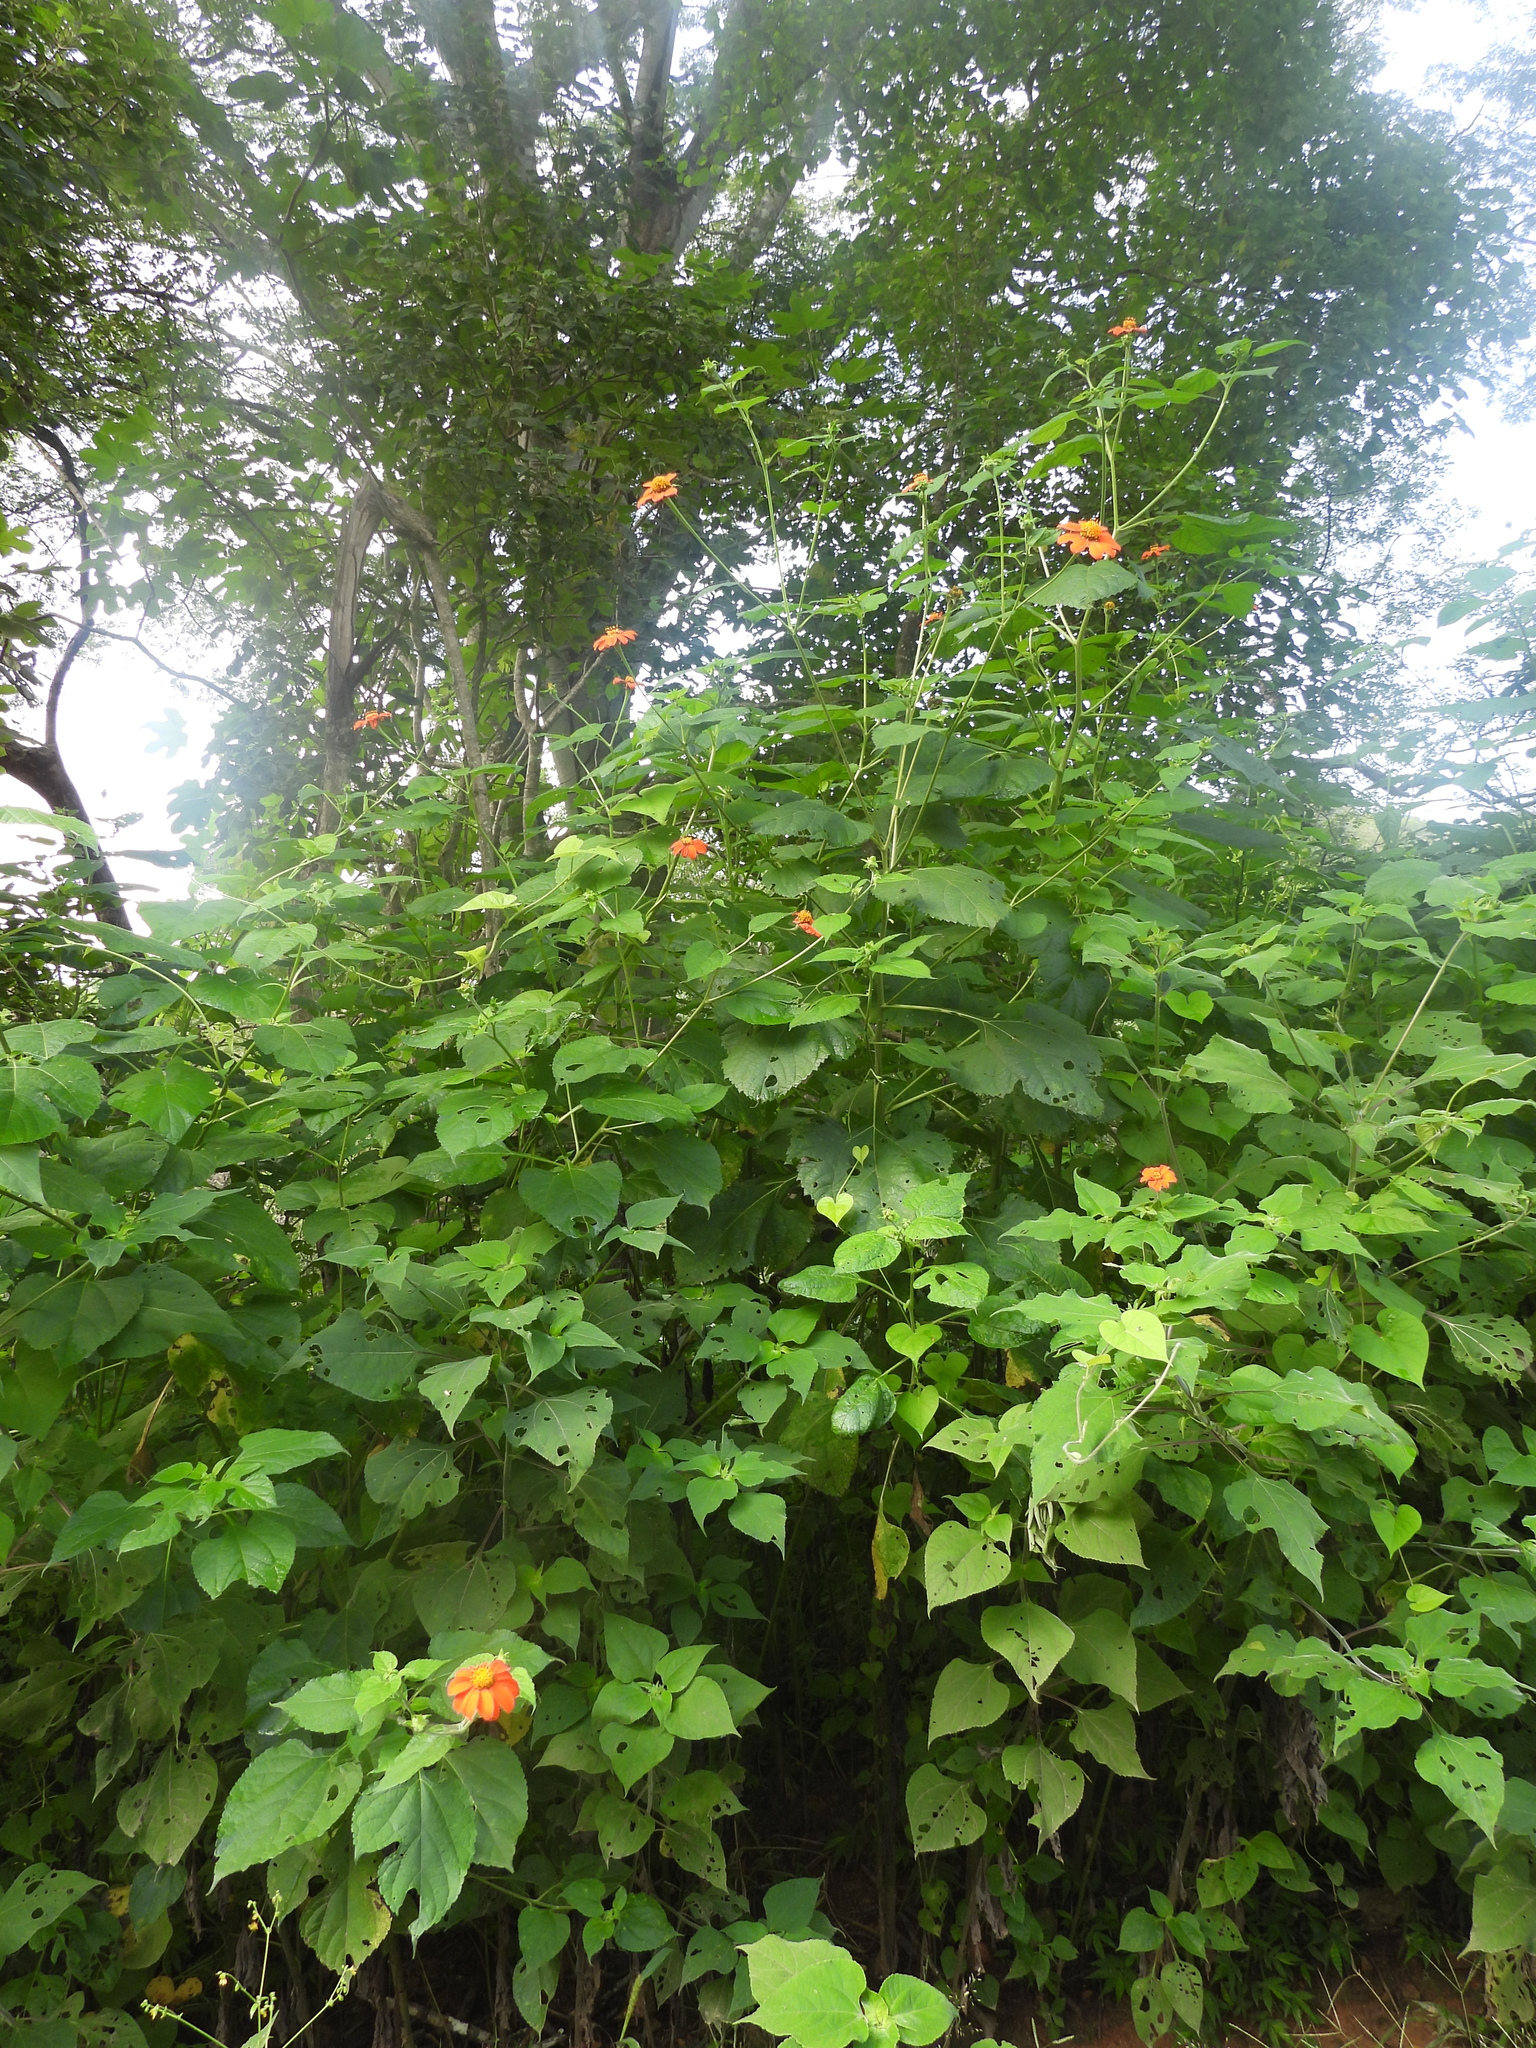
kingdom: Plantae
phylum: Tracheophyta
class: Magnoliopsida
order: Asterales
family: Asteraceae
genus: Tithonia
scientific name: Tithonia rotundifolia
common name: Sunflower
